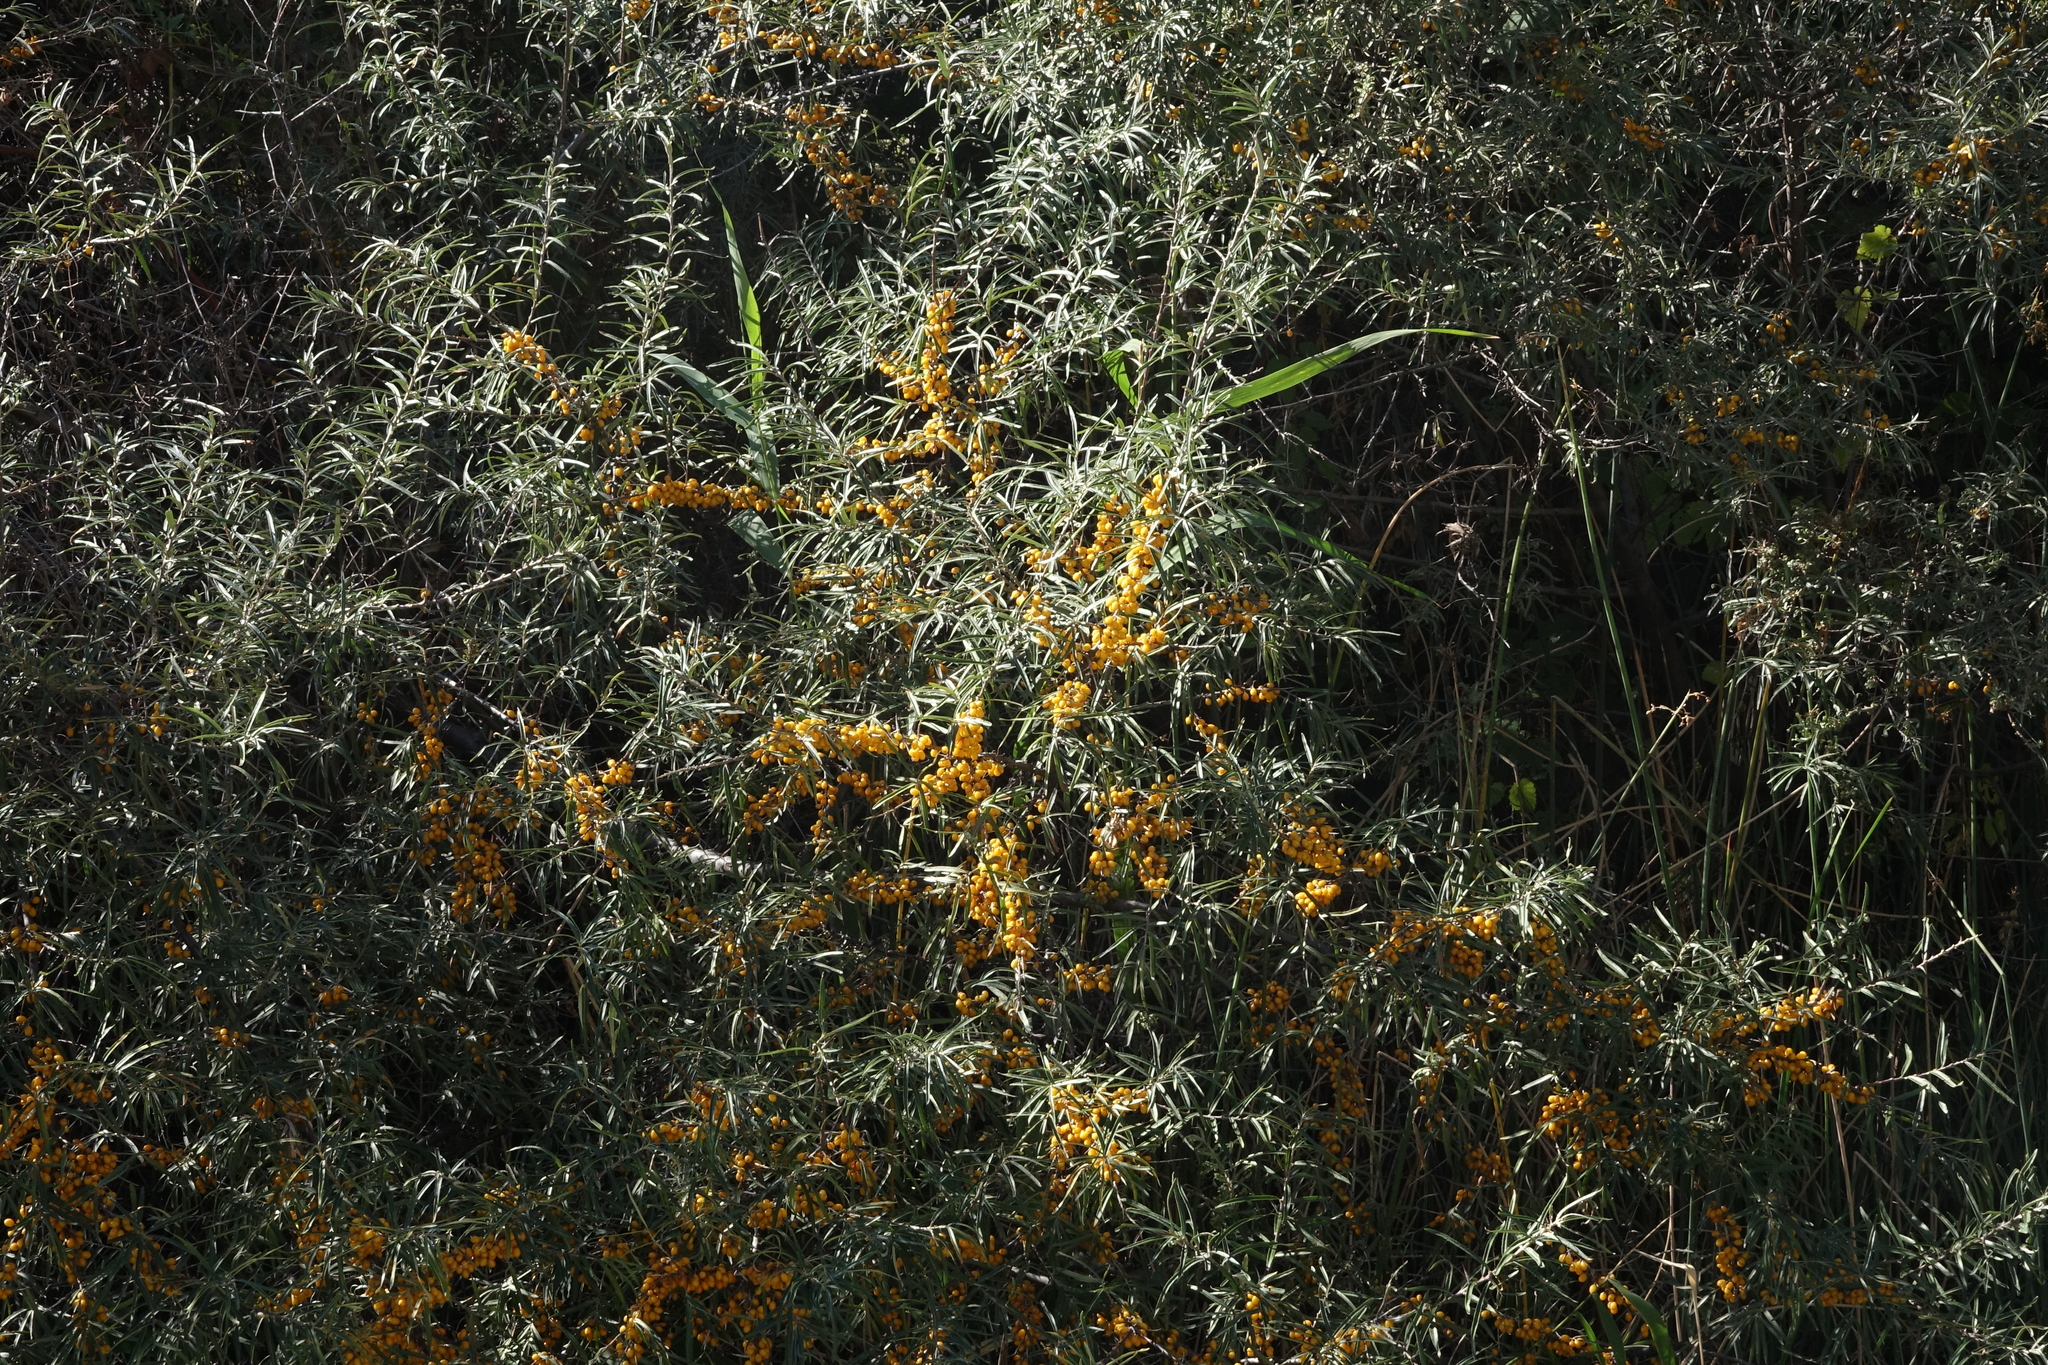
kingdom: Plantae
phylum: Tracheophyta
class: Magnoliopsida
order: Rosales
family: Elaeagnaceae
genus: Hippophae
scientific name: Hippophae rhamnoides
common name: Sea-buckthorn
